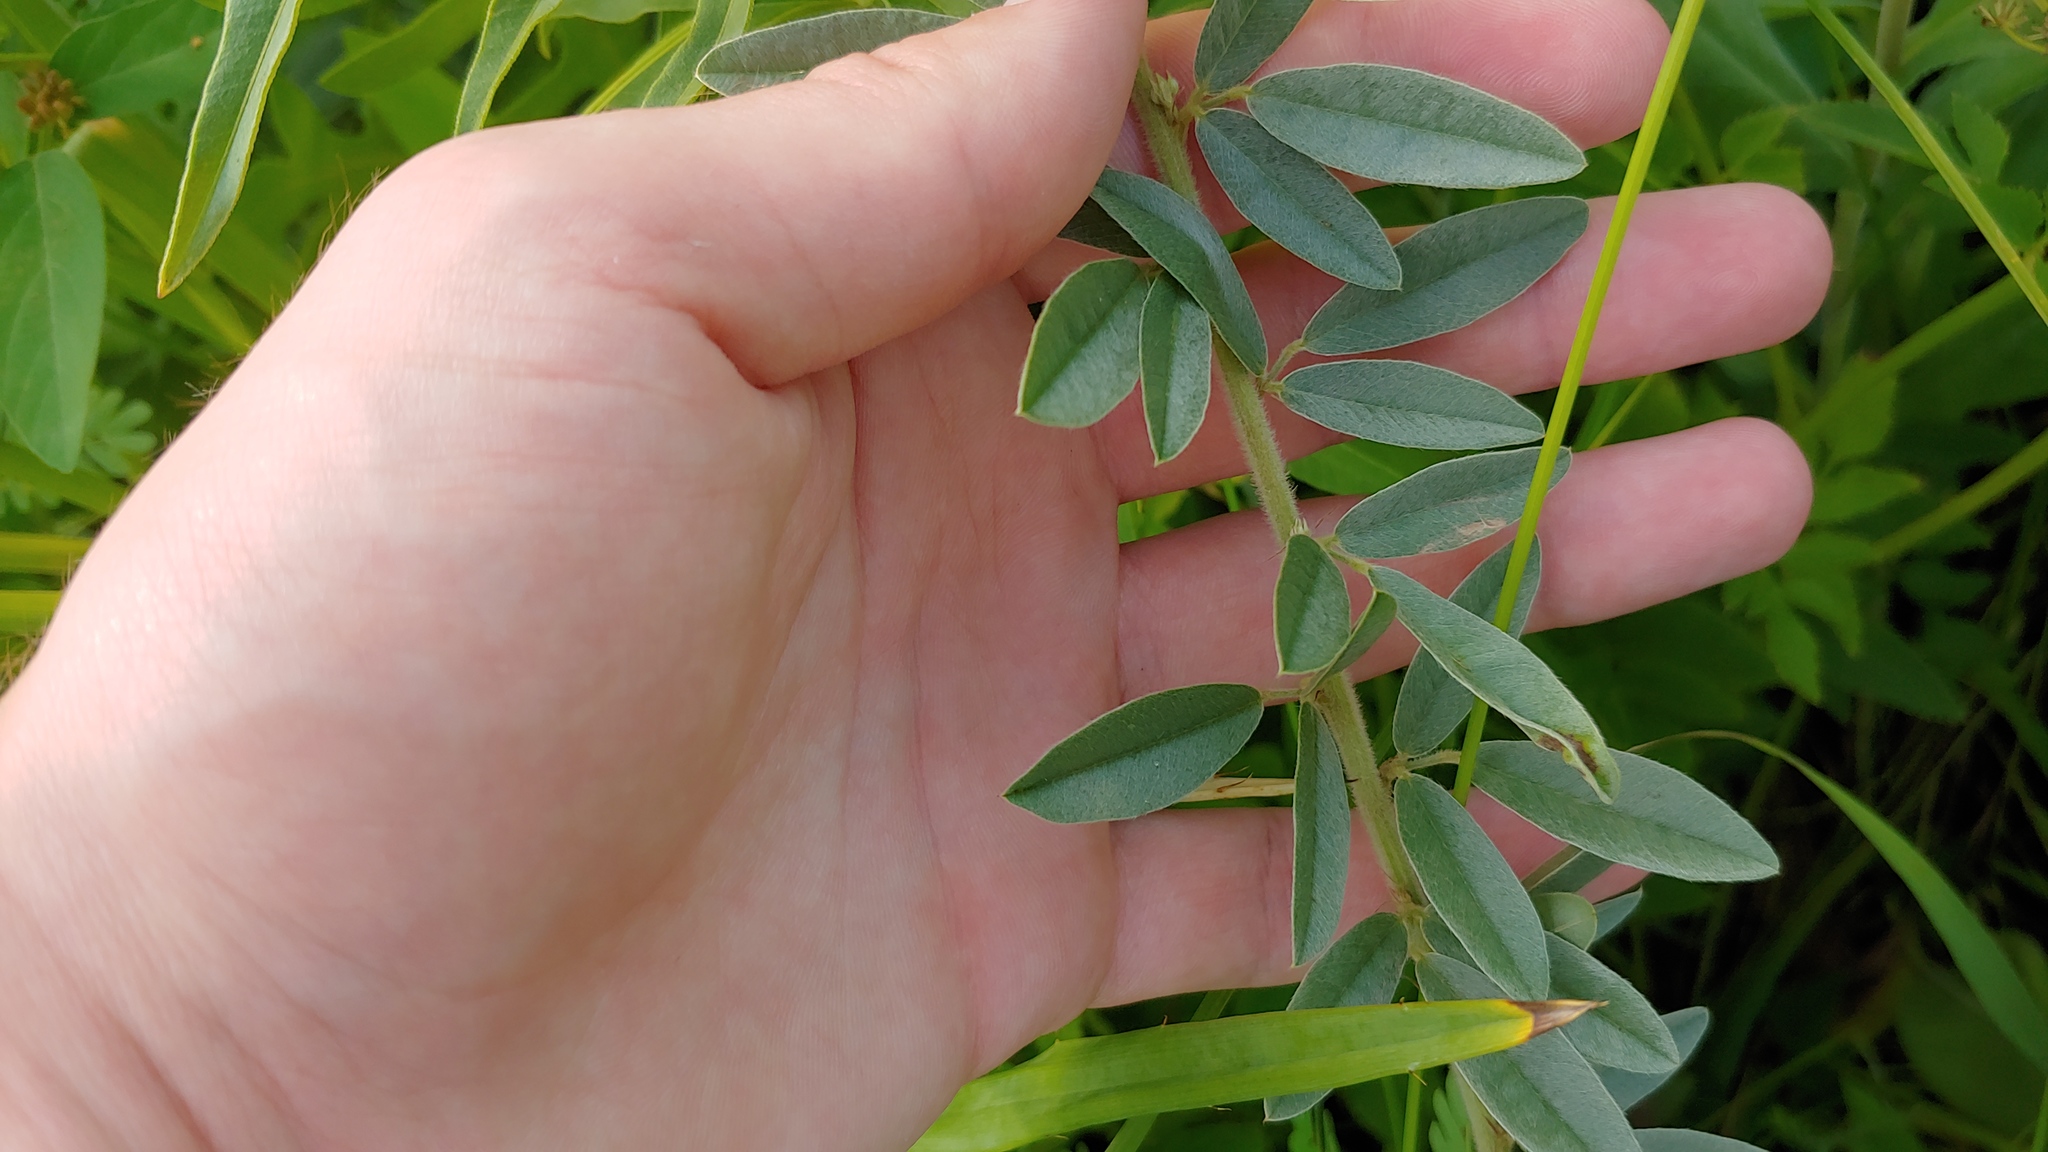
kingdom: Plantae
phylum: Tracheophyta
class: Magnoliopsida
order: Fabales
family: Fabaceae
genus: Lespedeza
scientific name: Lespedeza capitata
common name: Dusty clover
